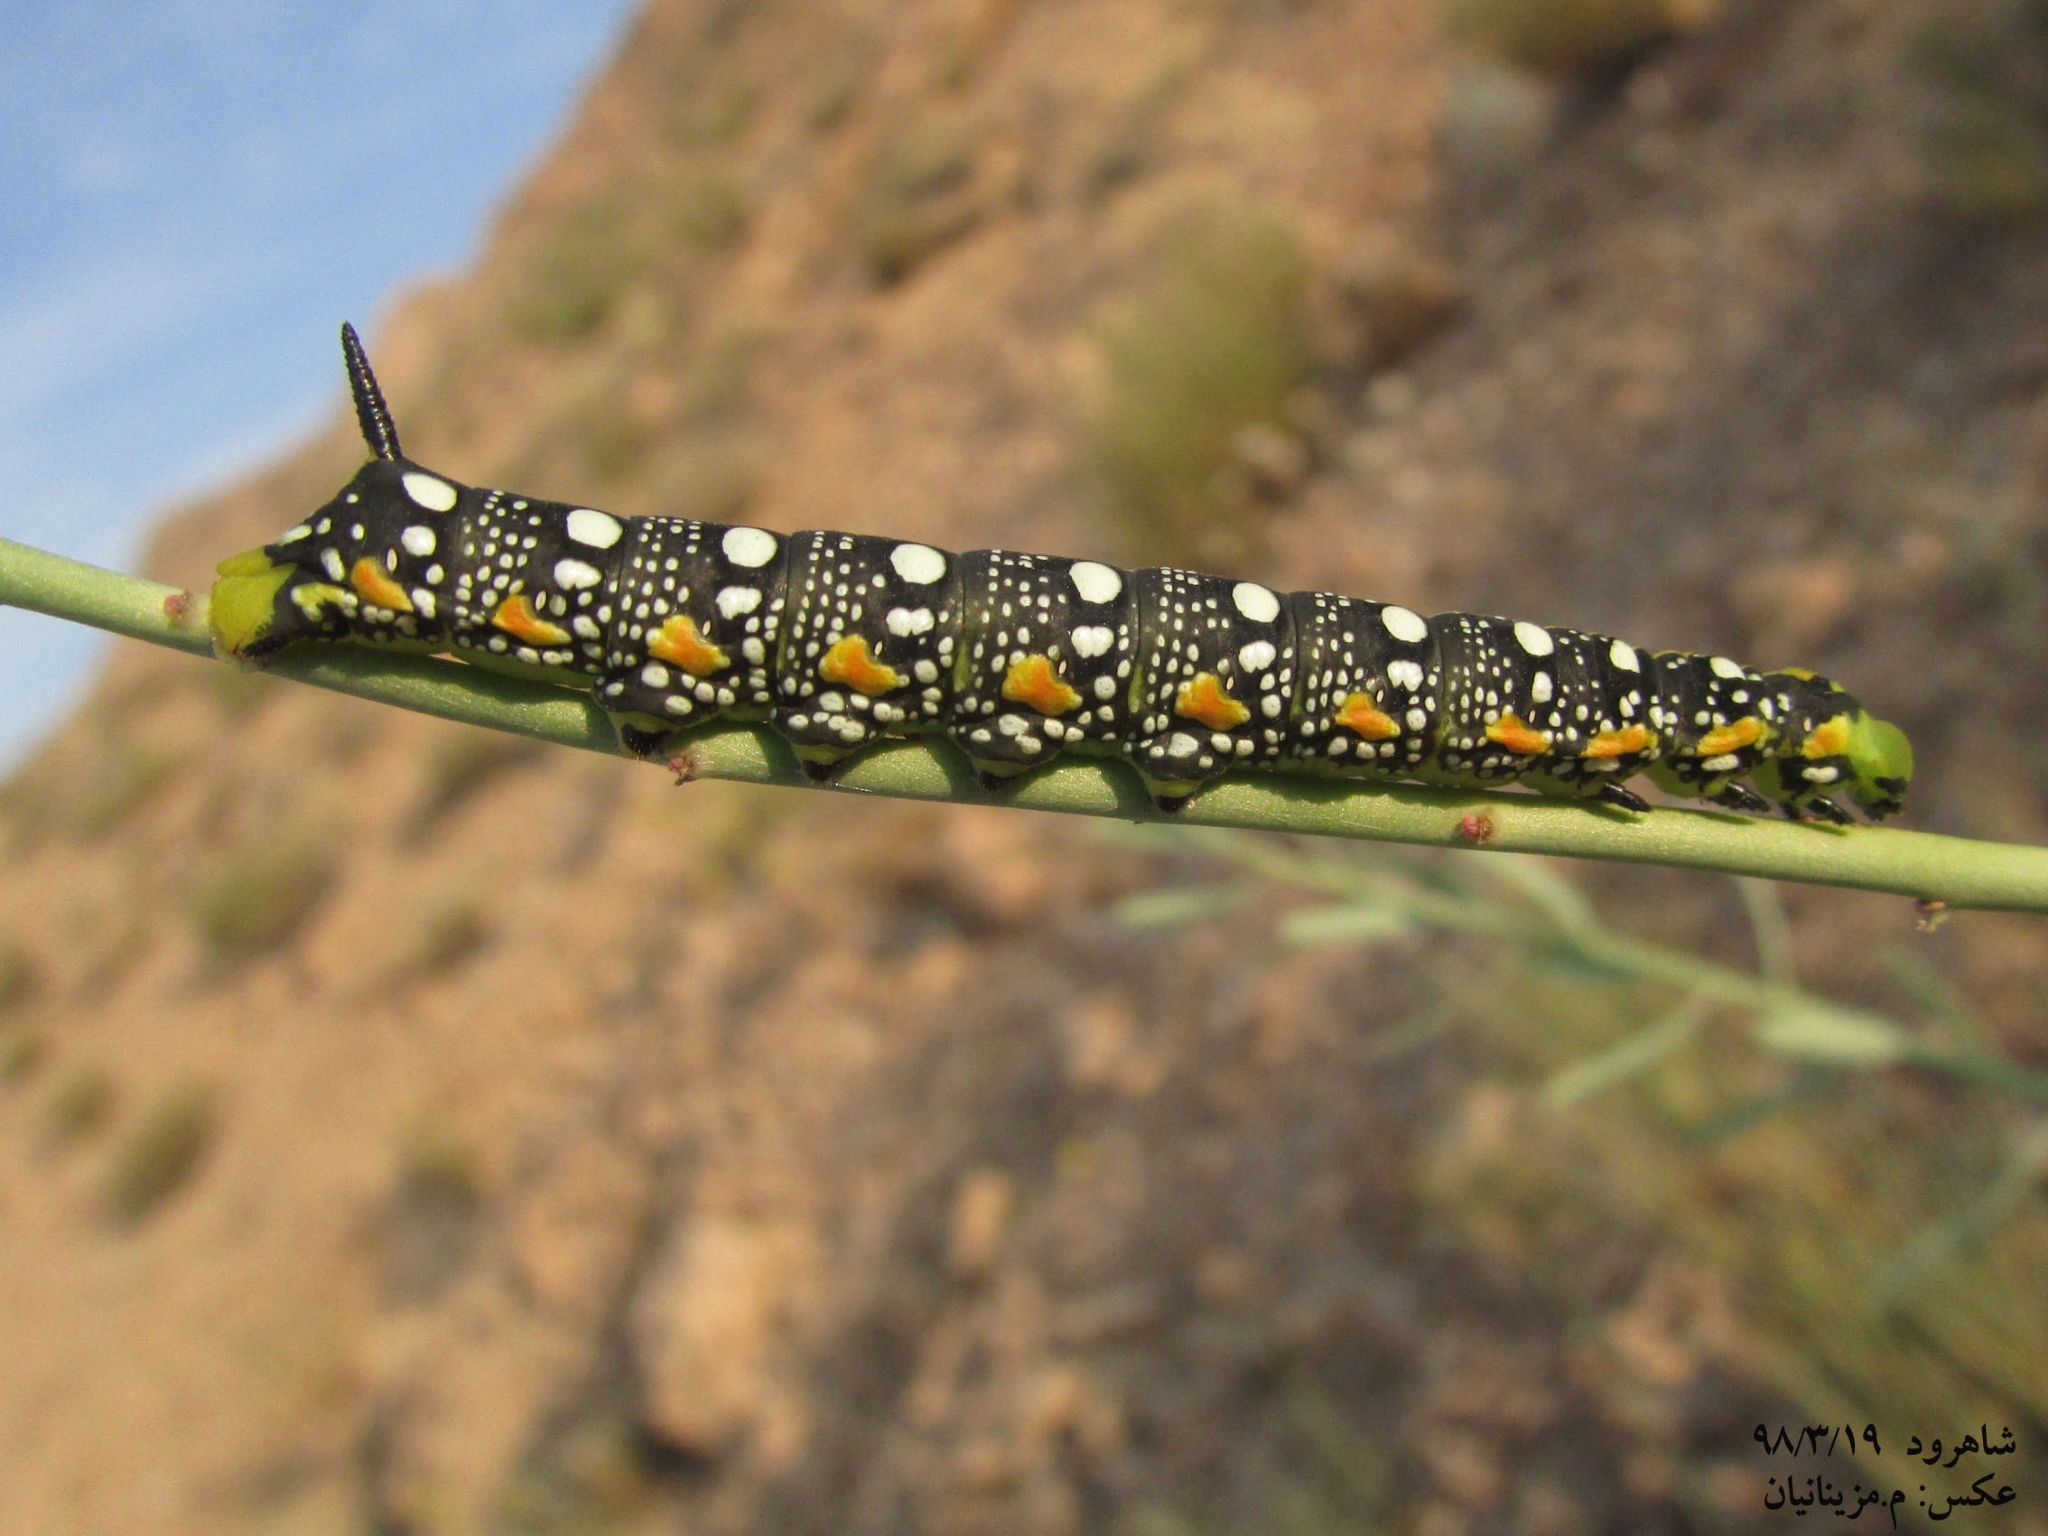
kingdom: Animalia
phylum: Arthropoda
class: Insecta
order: Lepidoptera
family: Sphingidae
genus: Hyles
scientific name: Hyles euphorbiae
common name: Spurge hawk-moth
